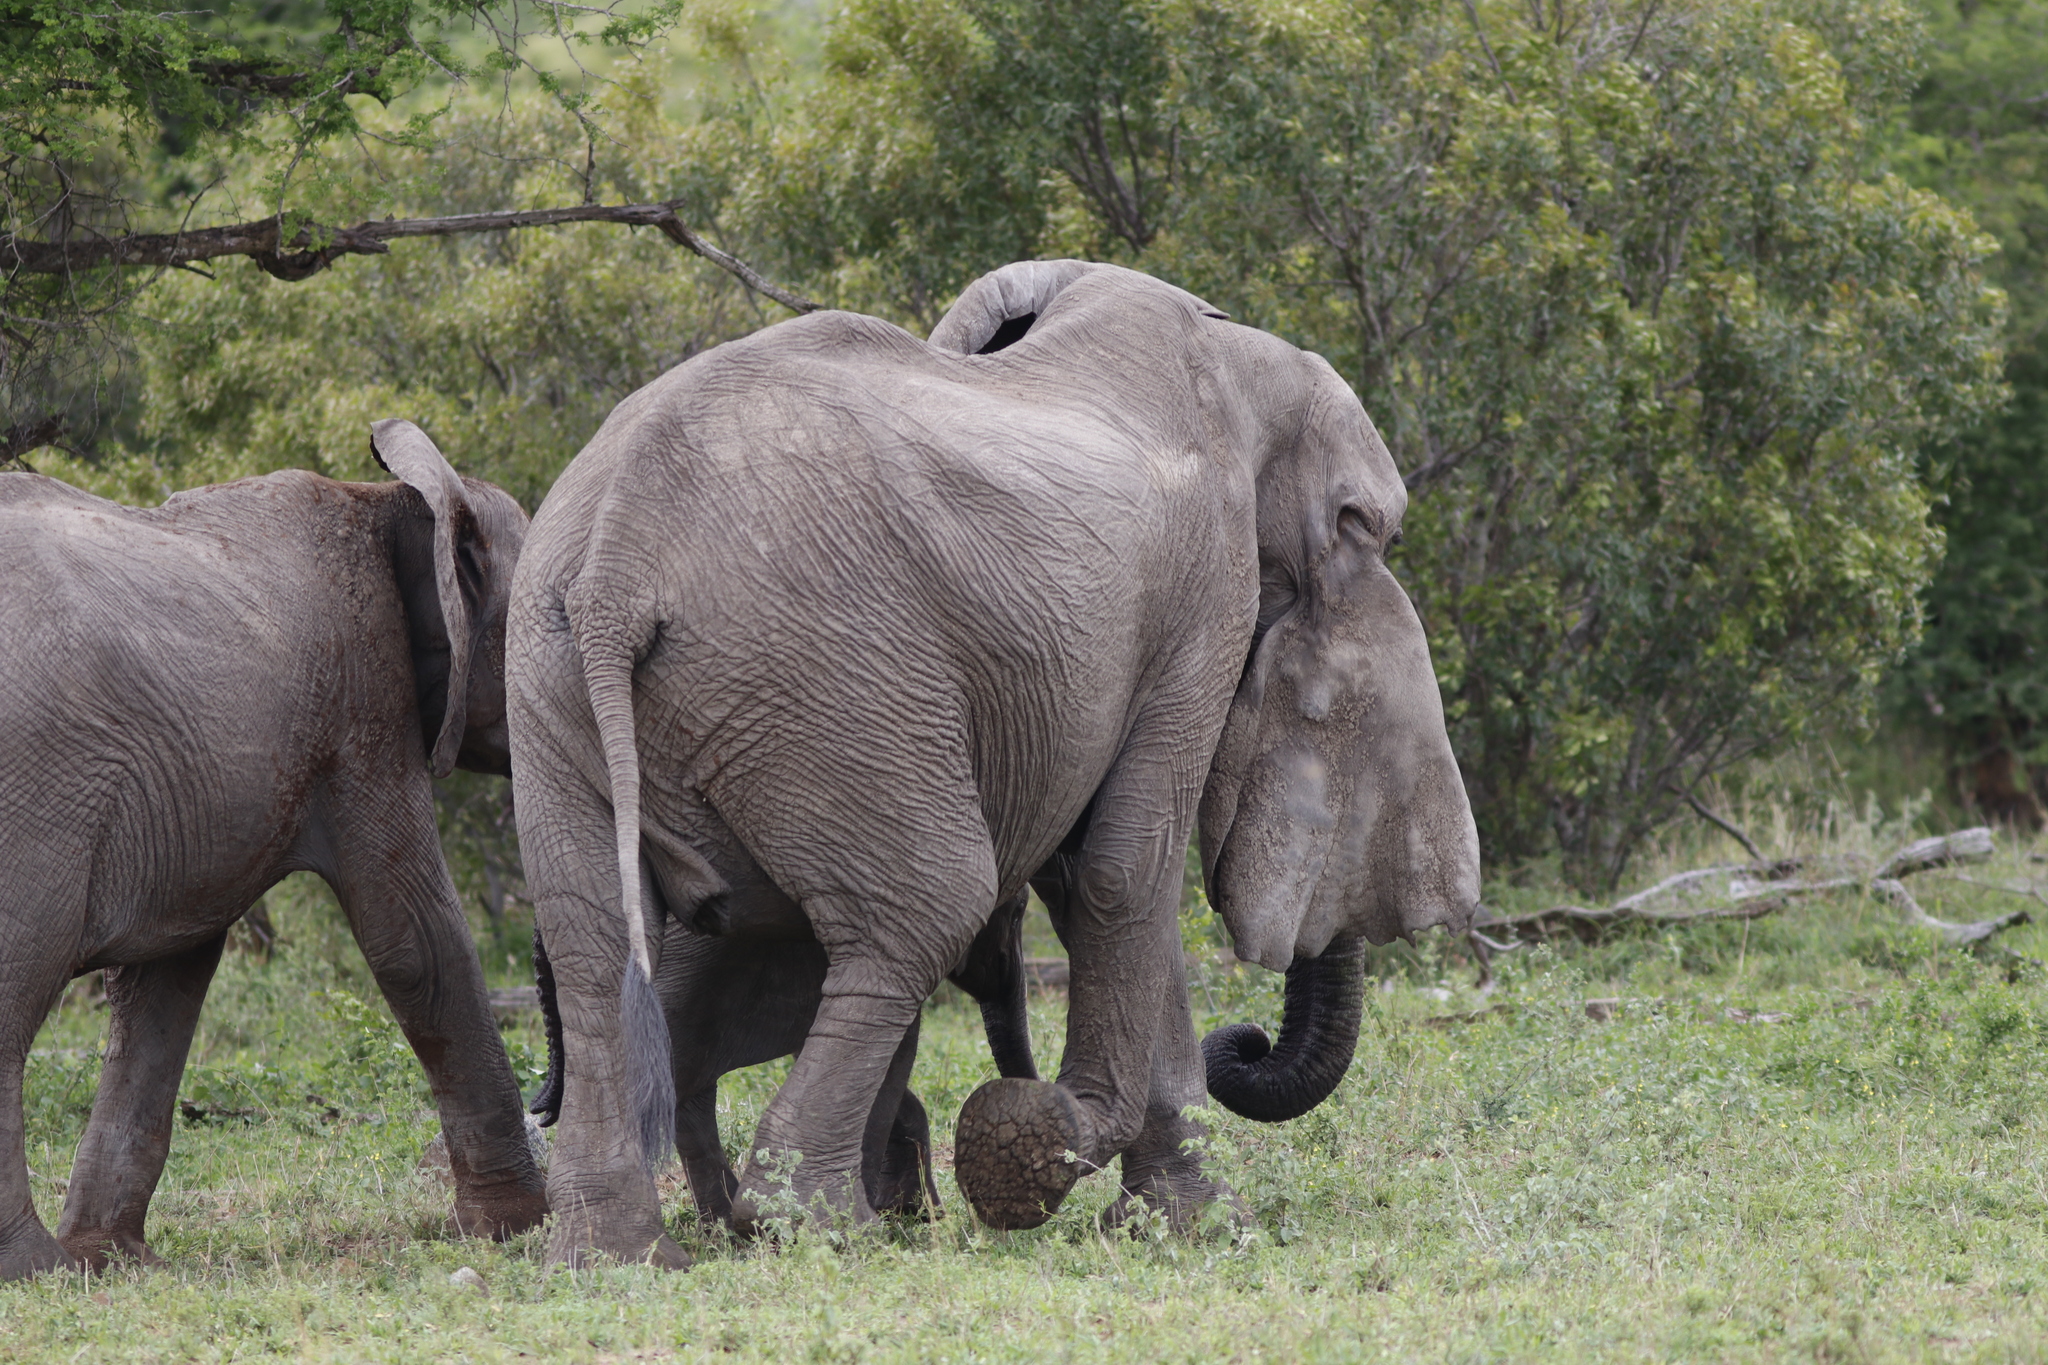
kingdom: Animalia
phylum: Chordata
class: Mammalia
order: Proboscidea
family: Elephantidae
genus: Loxodonta
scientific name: Loxodonta africana
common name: African elephant
